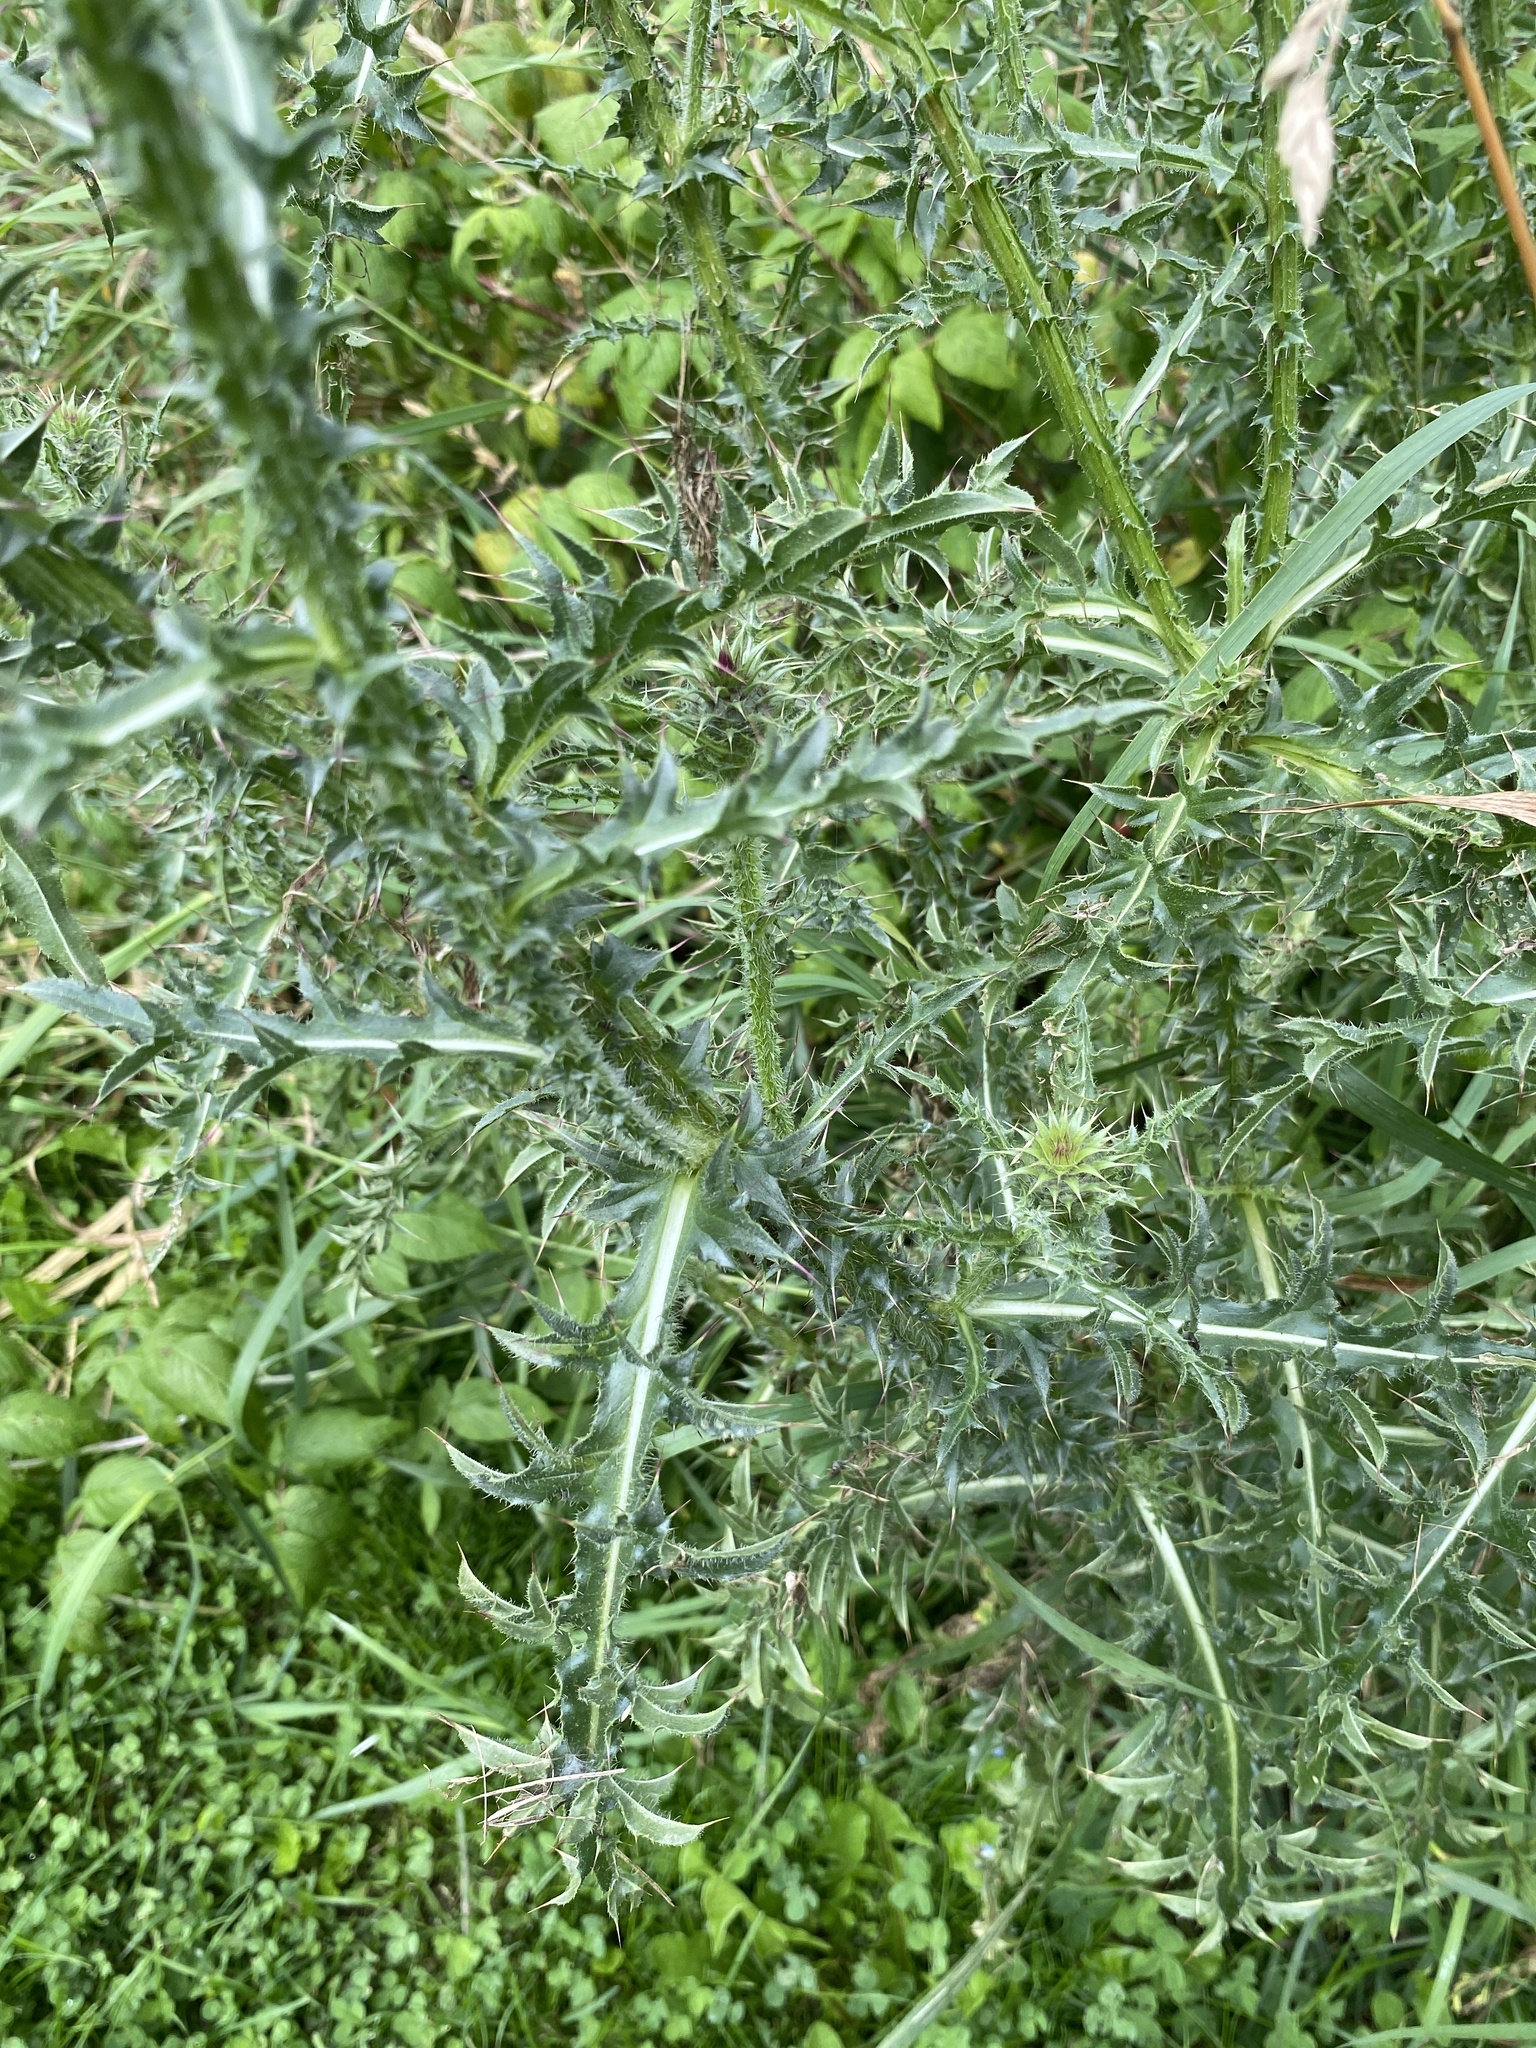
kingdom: Plantae
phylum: Tracheophyta
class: Magnoliopsida
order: Asterales
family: Asteraceae
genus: Carduus
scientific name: Carduus nutans
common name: Musk thistle
